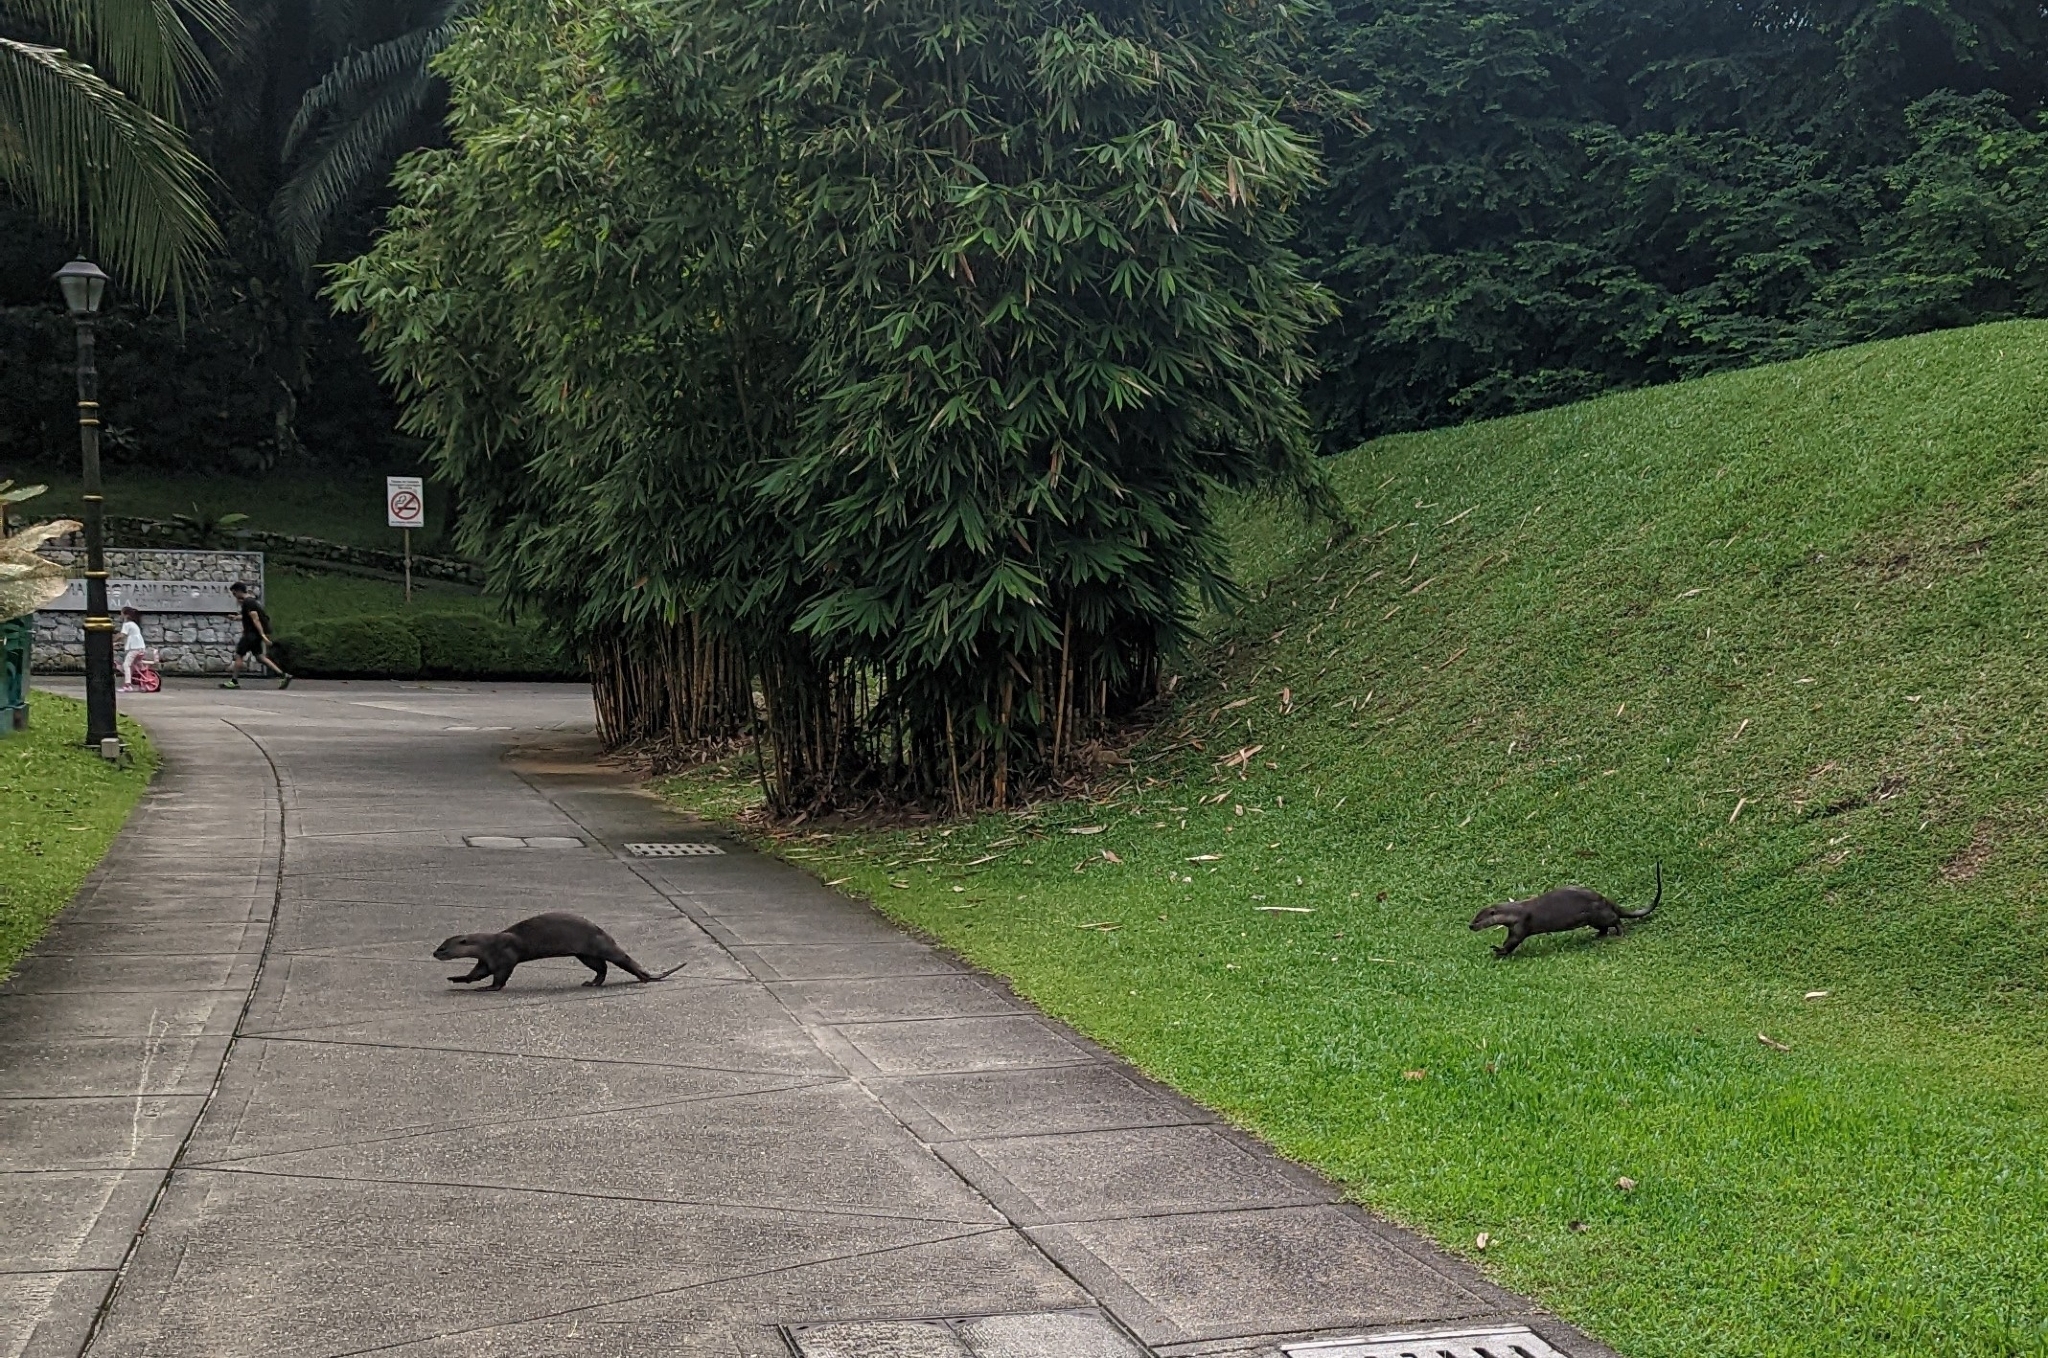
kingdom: Animalia
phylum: Chordata
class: Mammalia
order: Carnivora
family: Mustelidae
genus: Lutrogale
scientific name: Lutrogale perspicillata
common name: Smooth-coated otter
